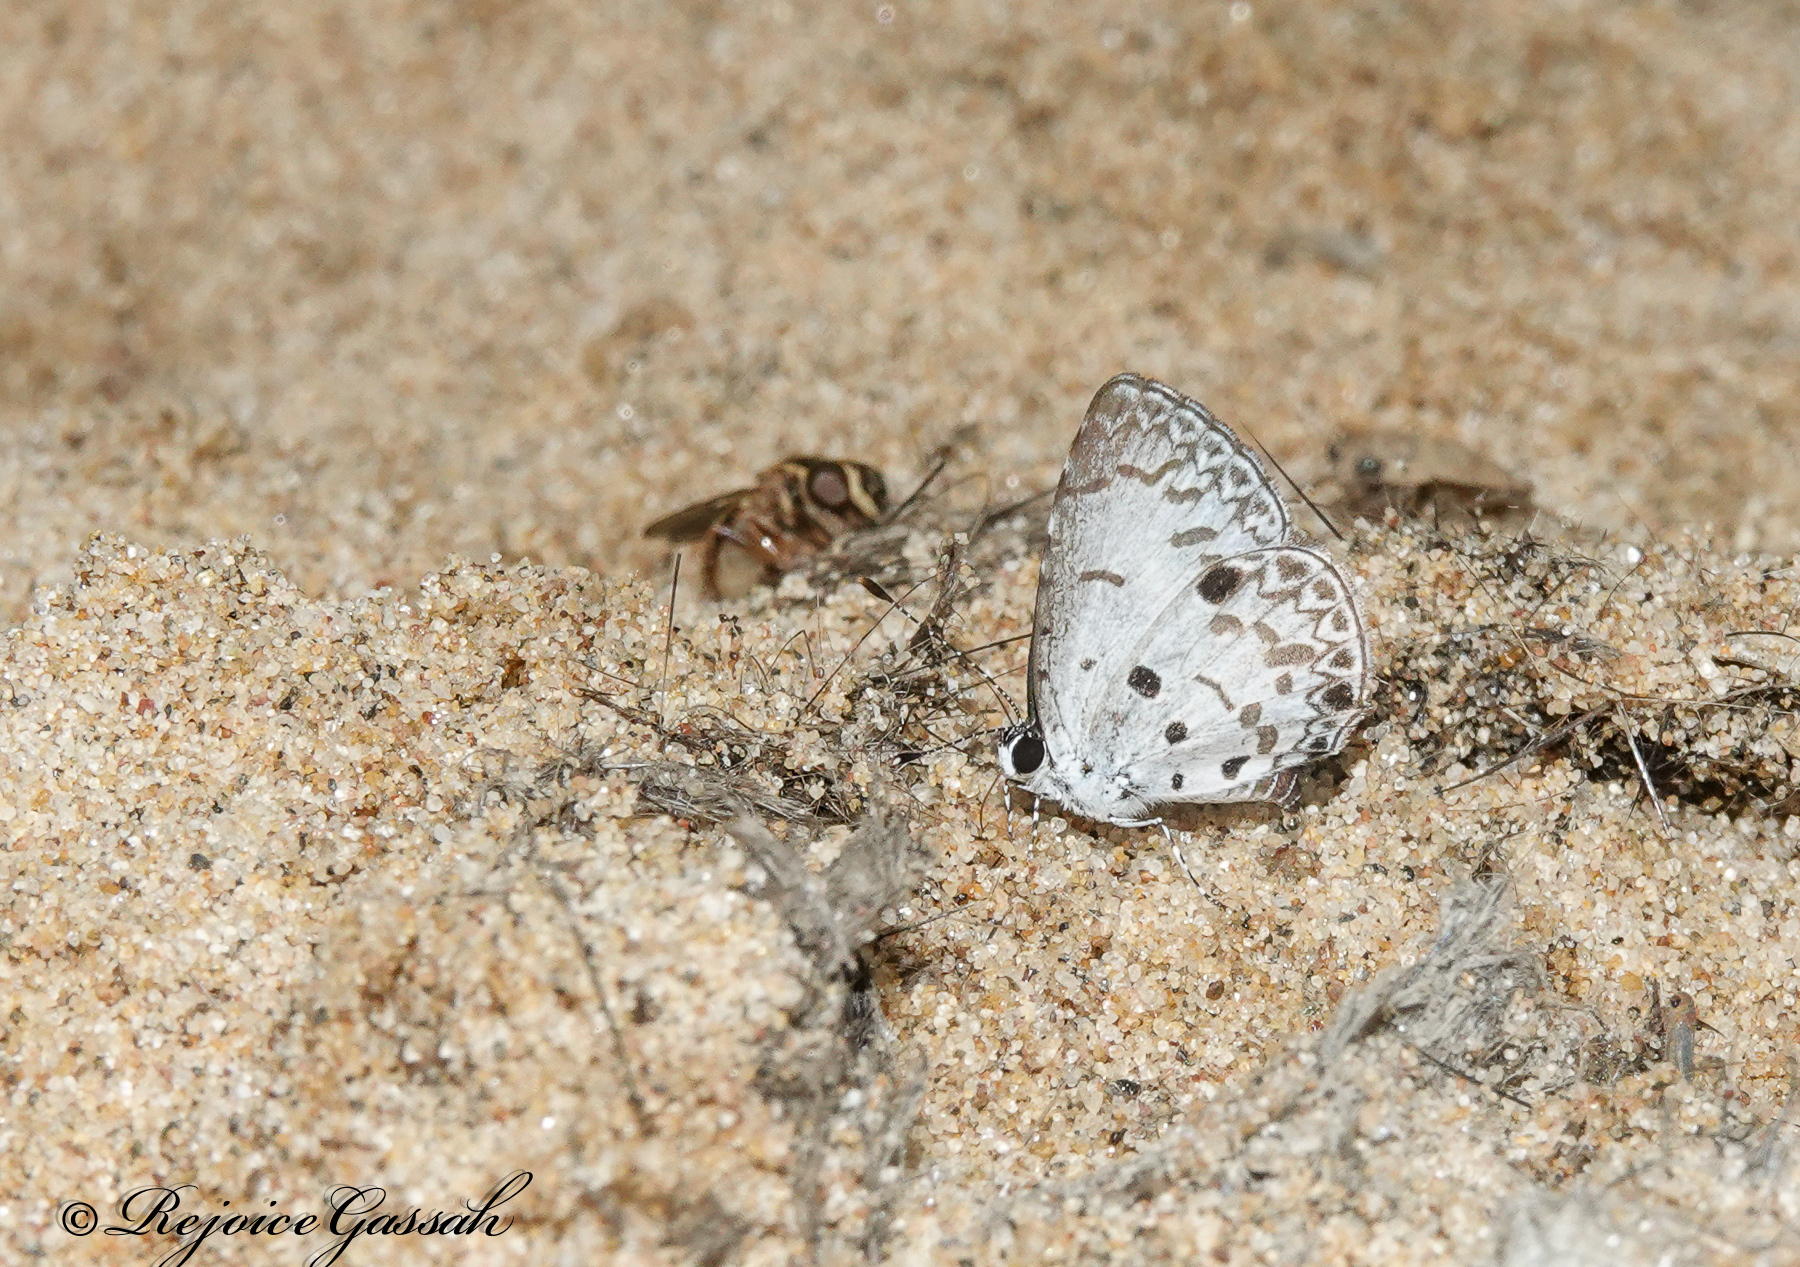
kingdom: Animalia
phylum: Arthropoda
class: Insecta
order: Lepidoptera
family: Lycaenidae
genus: Megisba
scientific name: Megisba malaya
